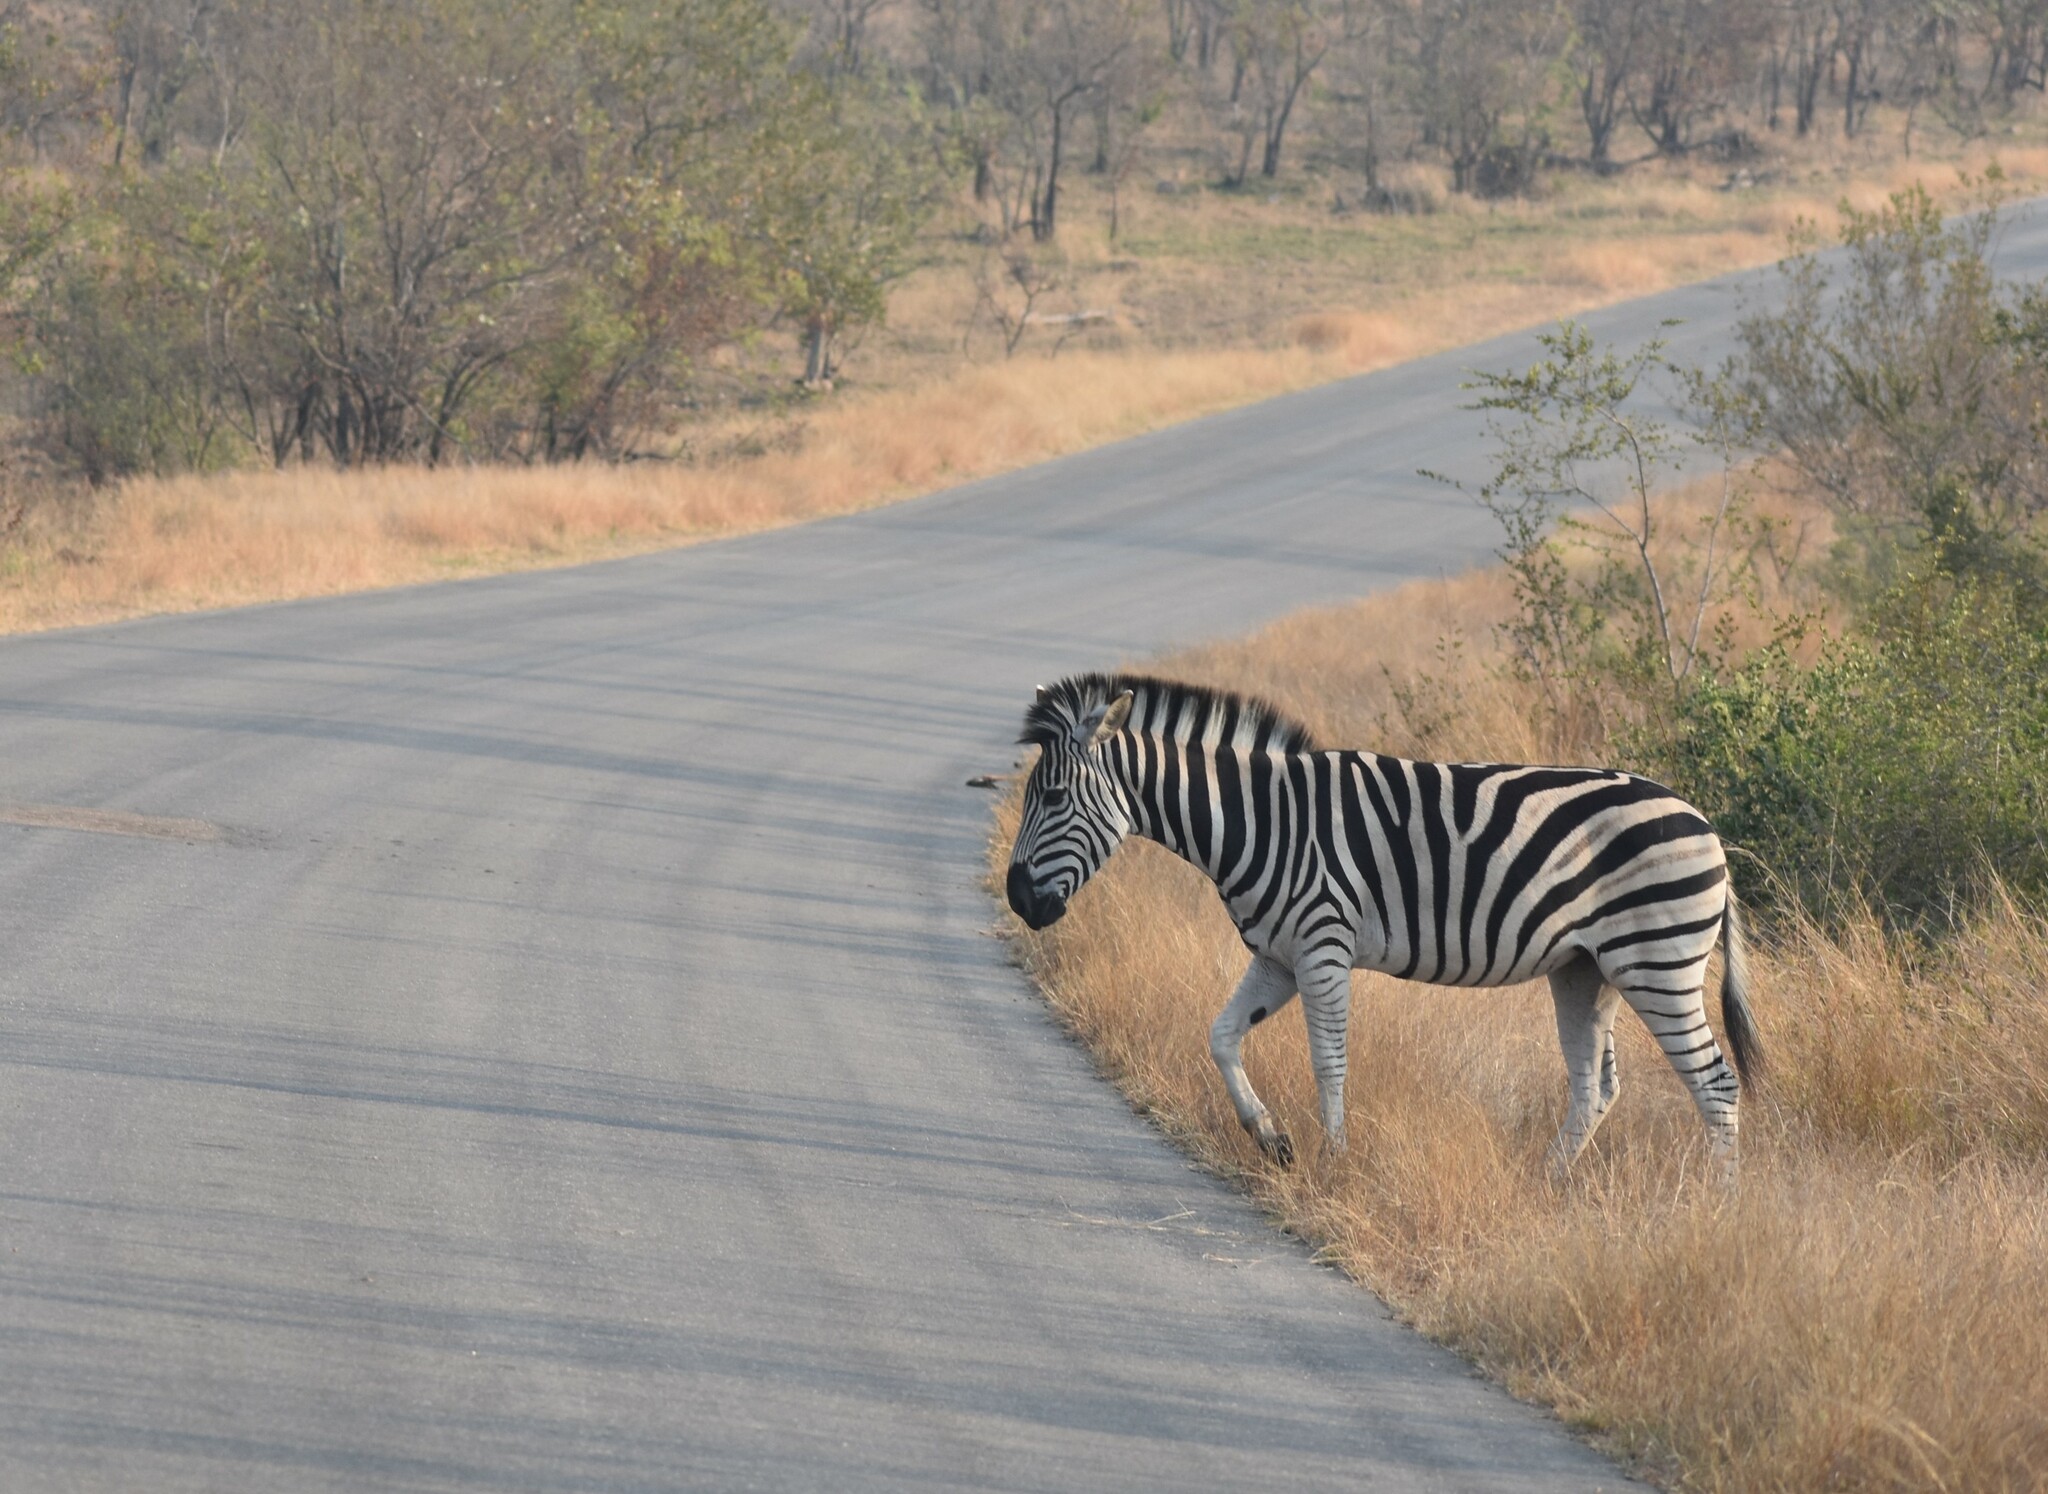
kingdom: Animalia
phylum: Chordata
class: Mammalia
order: Perissodactyla
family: Equidae
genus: Equus
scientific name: Equus quagga
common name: Plains zebra
